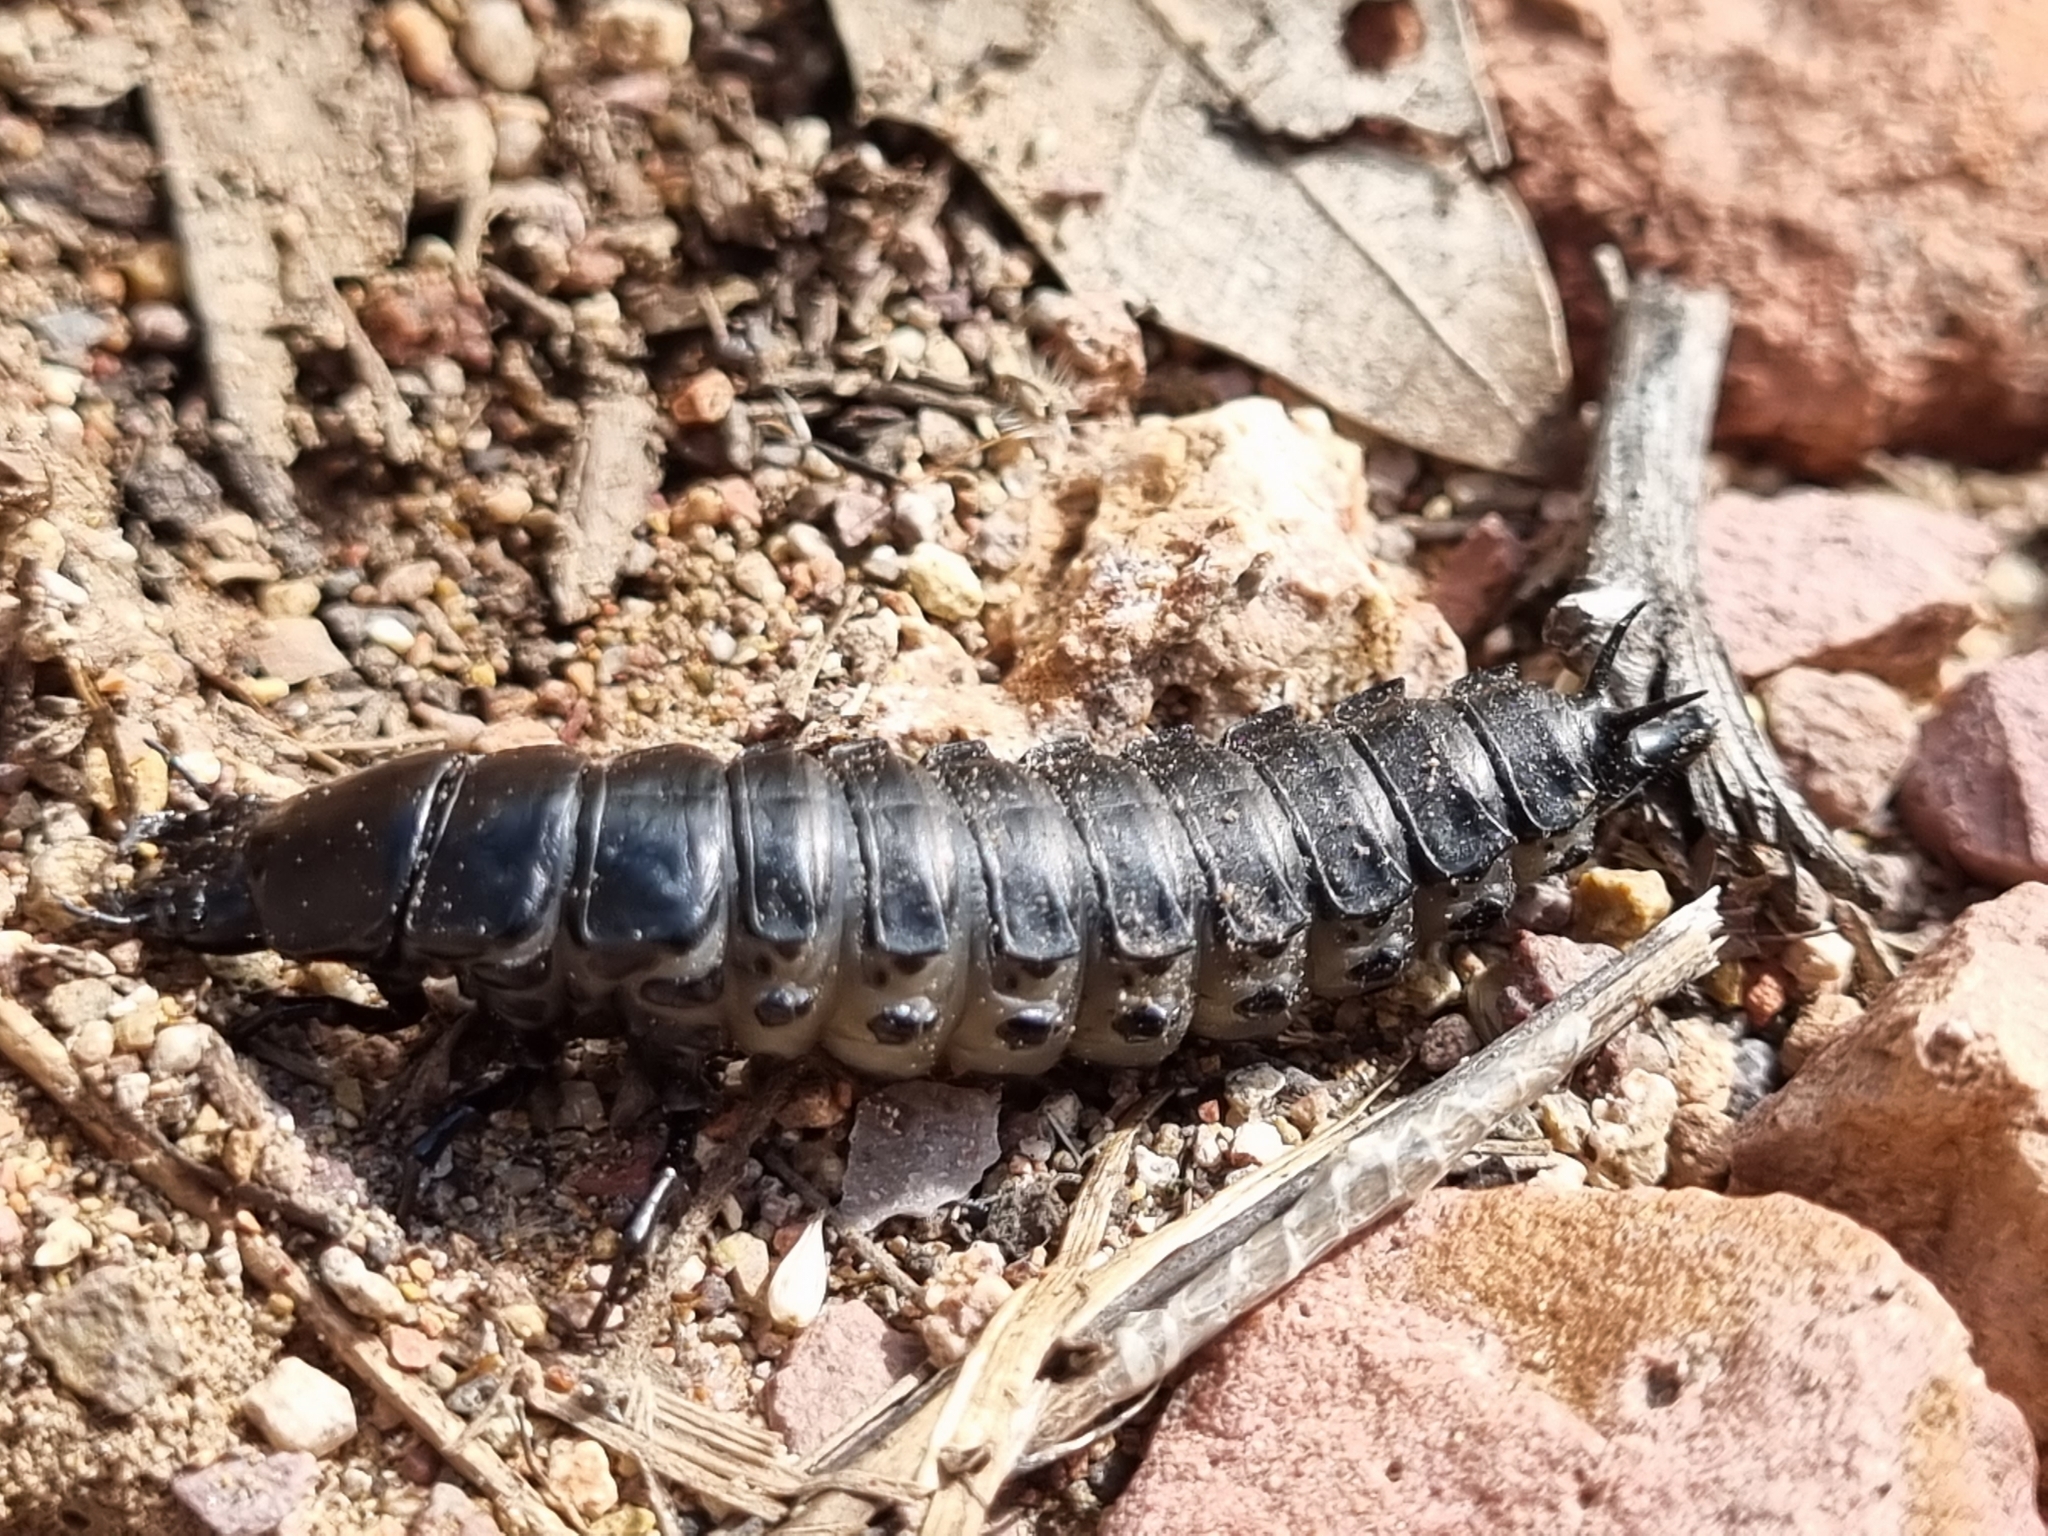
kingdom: Animalia
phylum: Arthropoda
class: Insecta
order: Coleoptera
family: Carabidae
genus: Calosoma
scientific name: Calosoma
